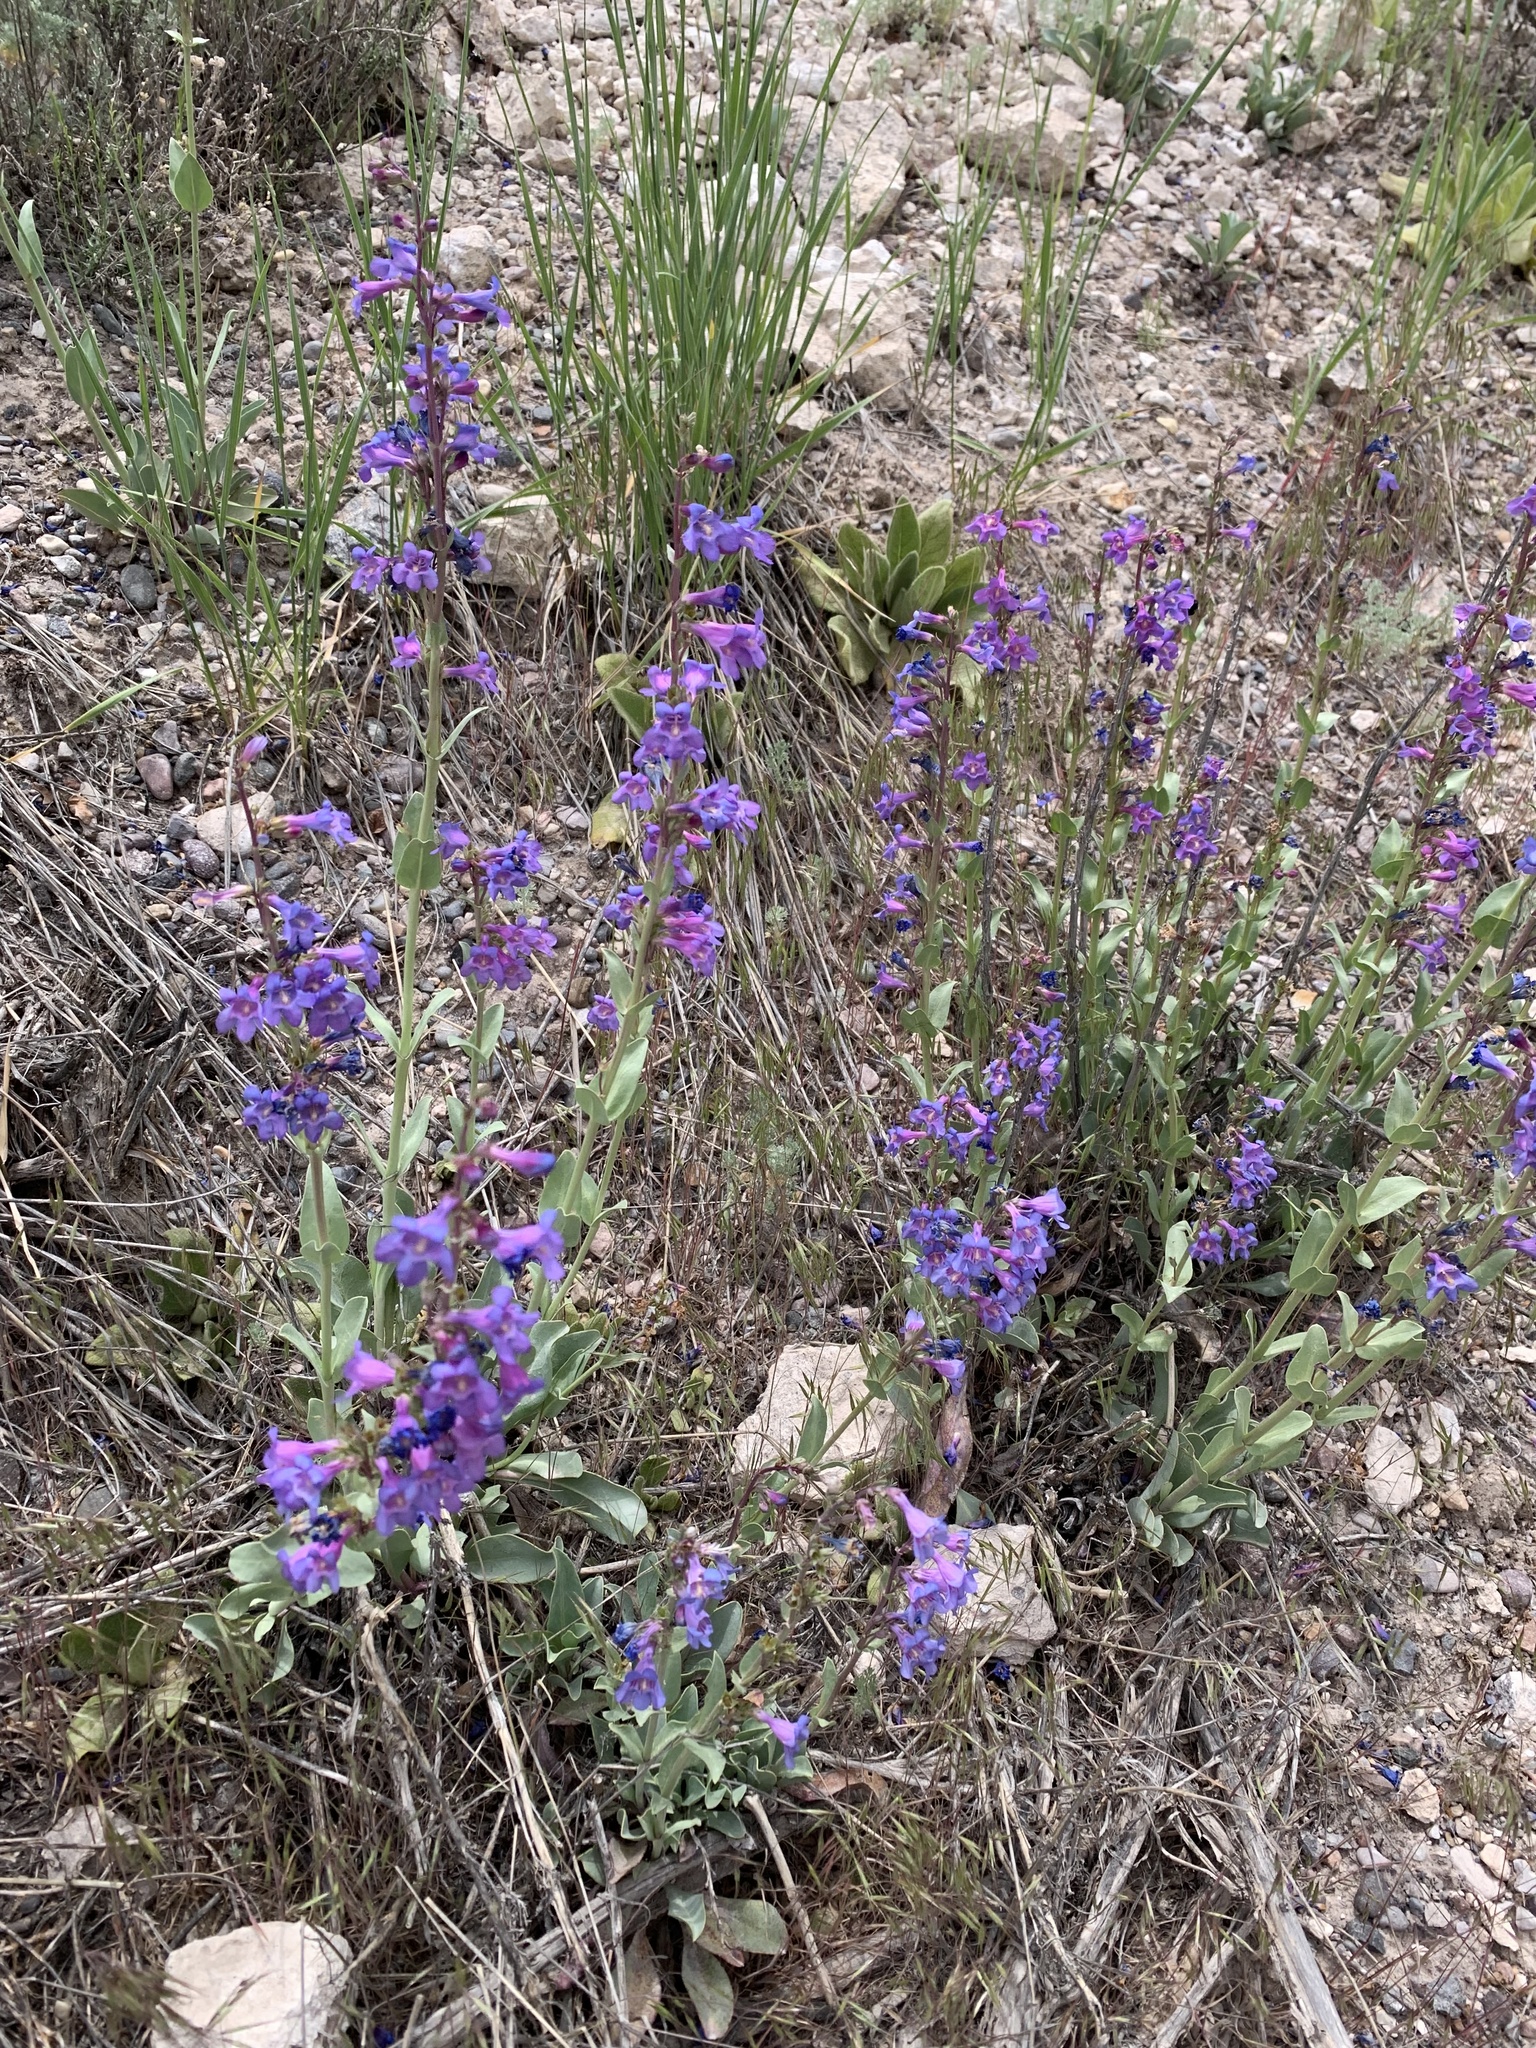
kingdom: Plantae
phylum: Tracheophyta
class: Magnoliopsida
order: Lamiales
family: Plantaginaceae
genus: Penstemon
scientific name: Penstemon pachyphyllus
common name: Thick-leaf penstemon
